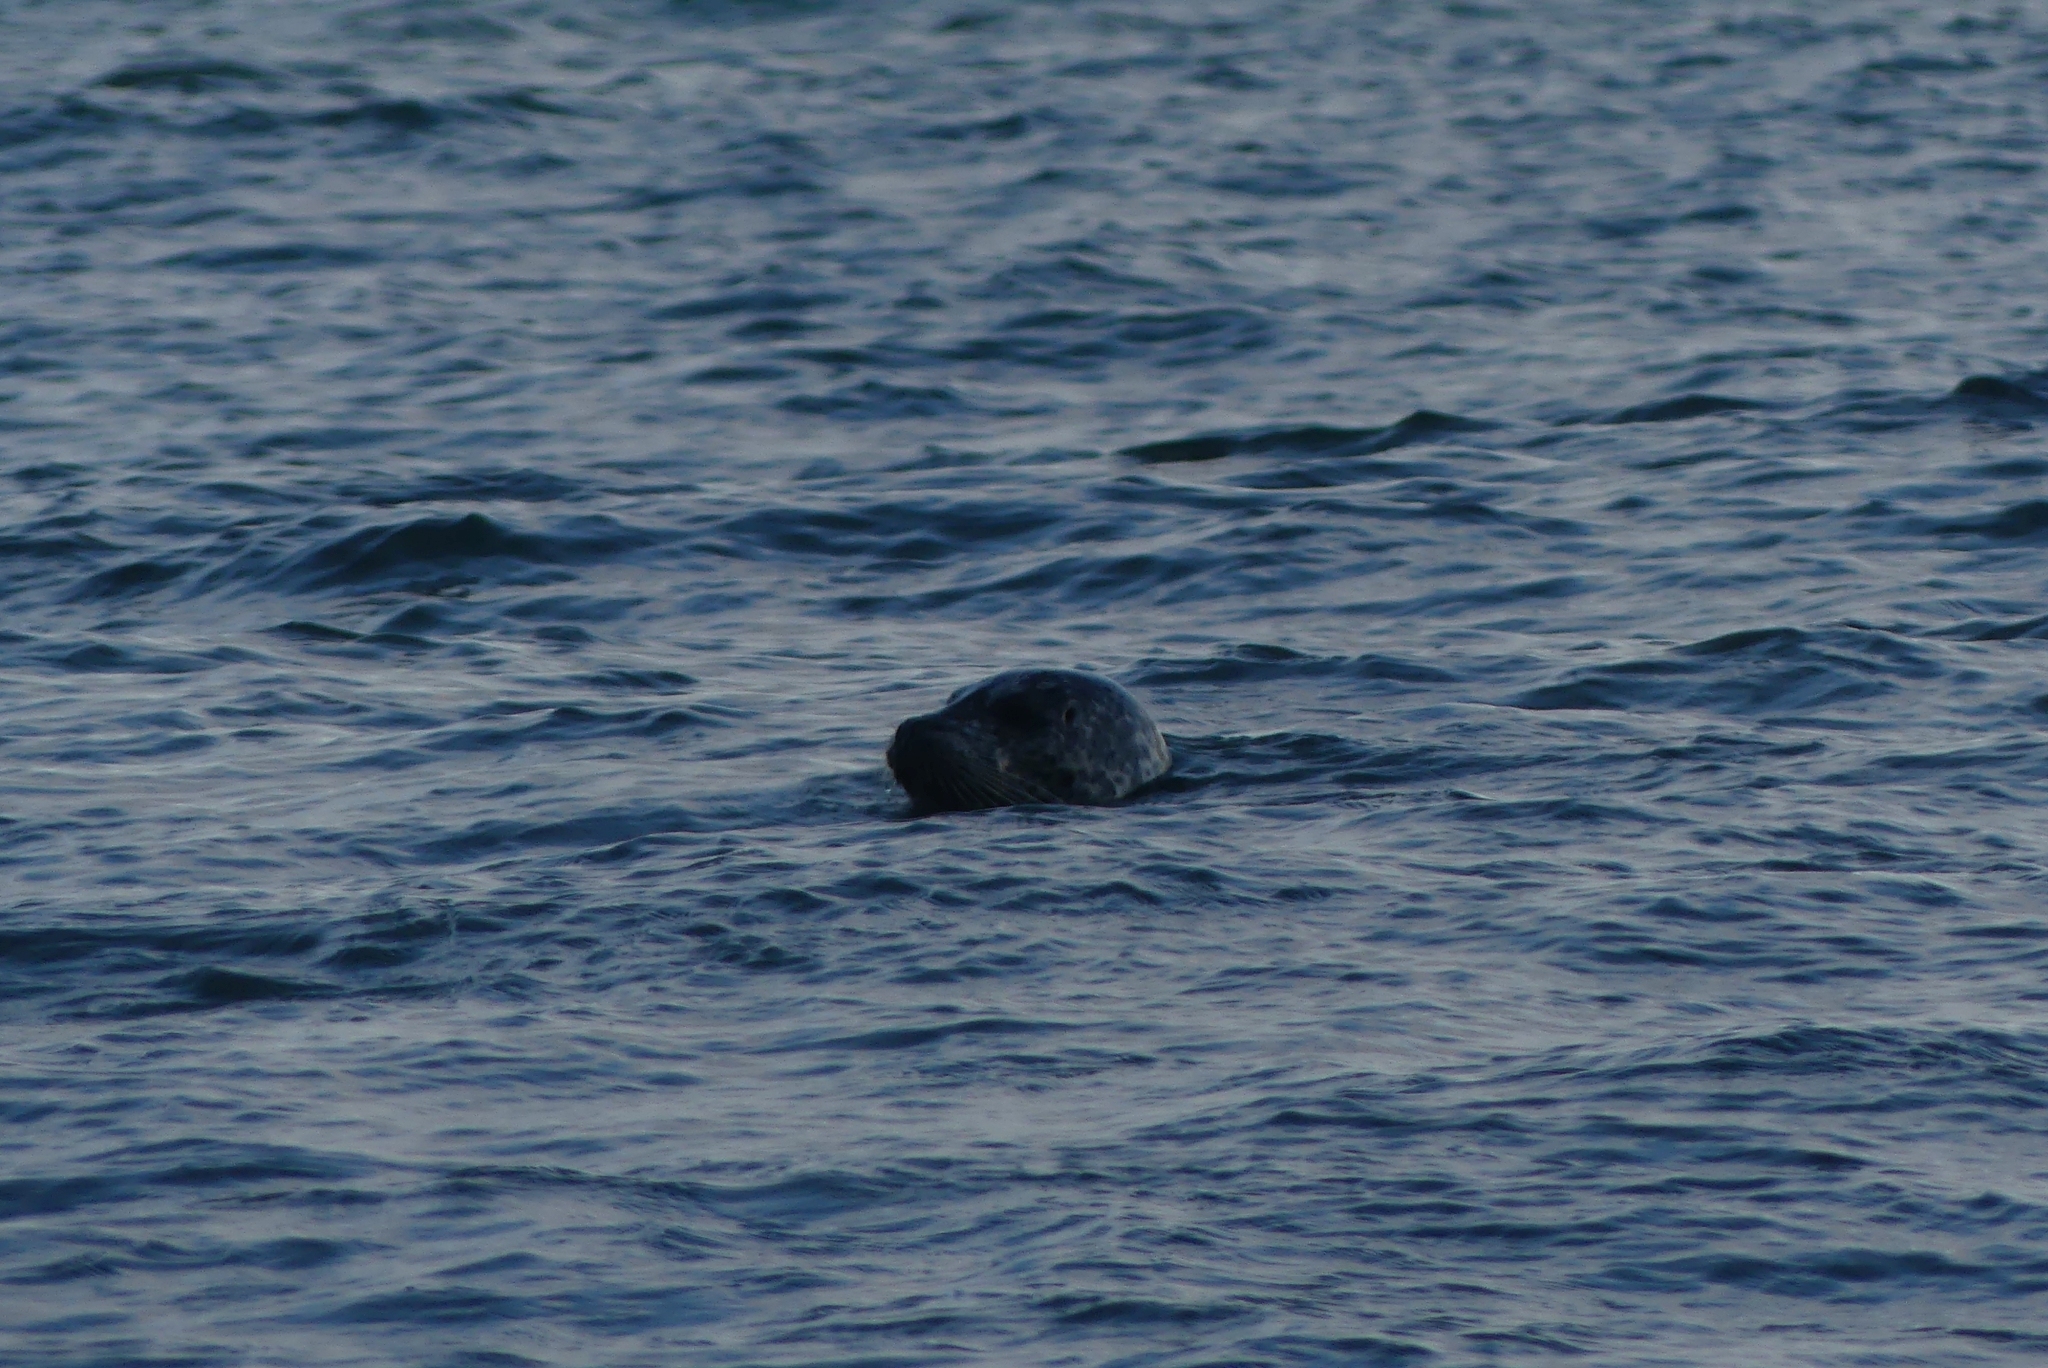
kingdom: Animalia
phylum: Chordata
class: Mammalia
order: Carnivora
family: Phocidae
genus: Phoca
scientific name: Phoca vitulina
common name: Harbor seal
